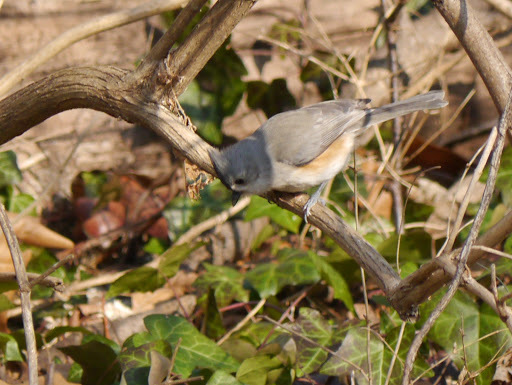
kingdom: Animalia
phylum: Chordata
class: Aves
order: Passeriformes
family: Paridae
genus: Baeolophus
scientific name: Baeolophus bicolor
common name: Tufted titmouse
